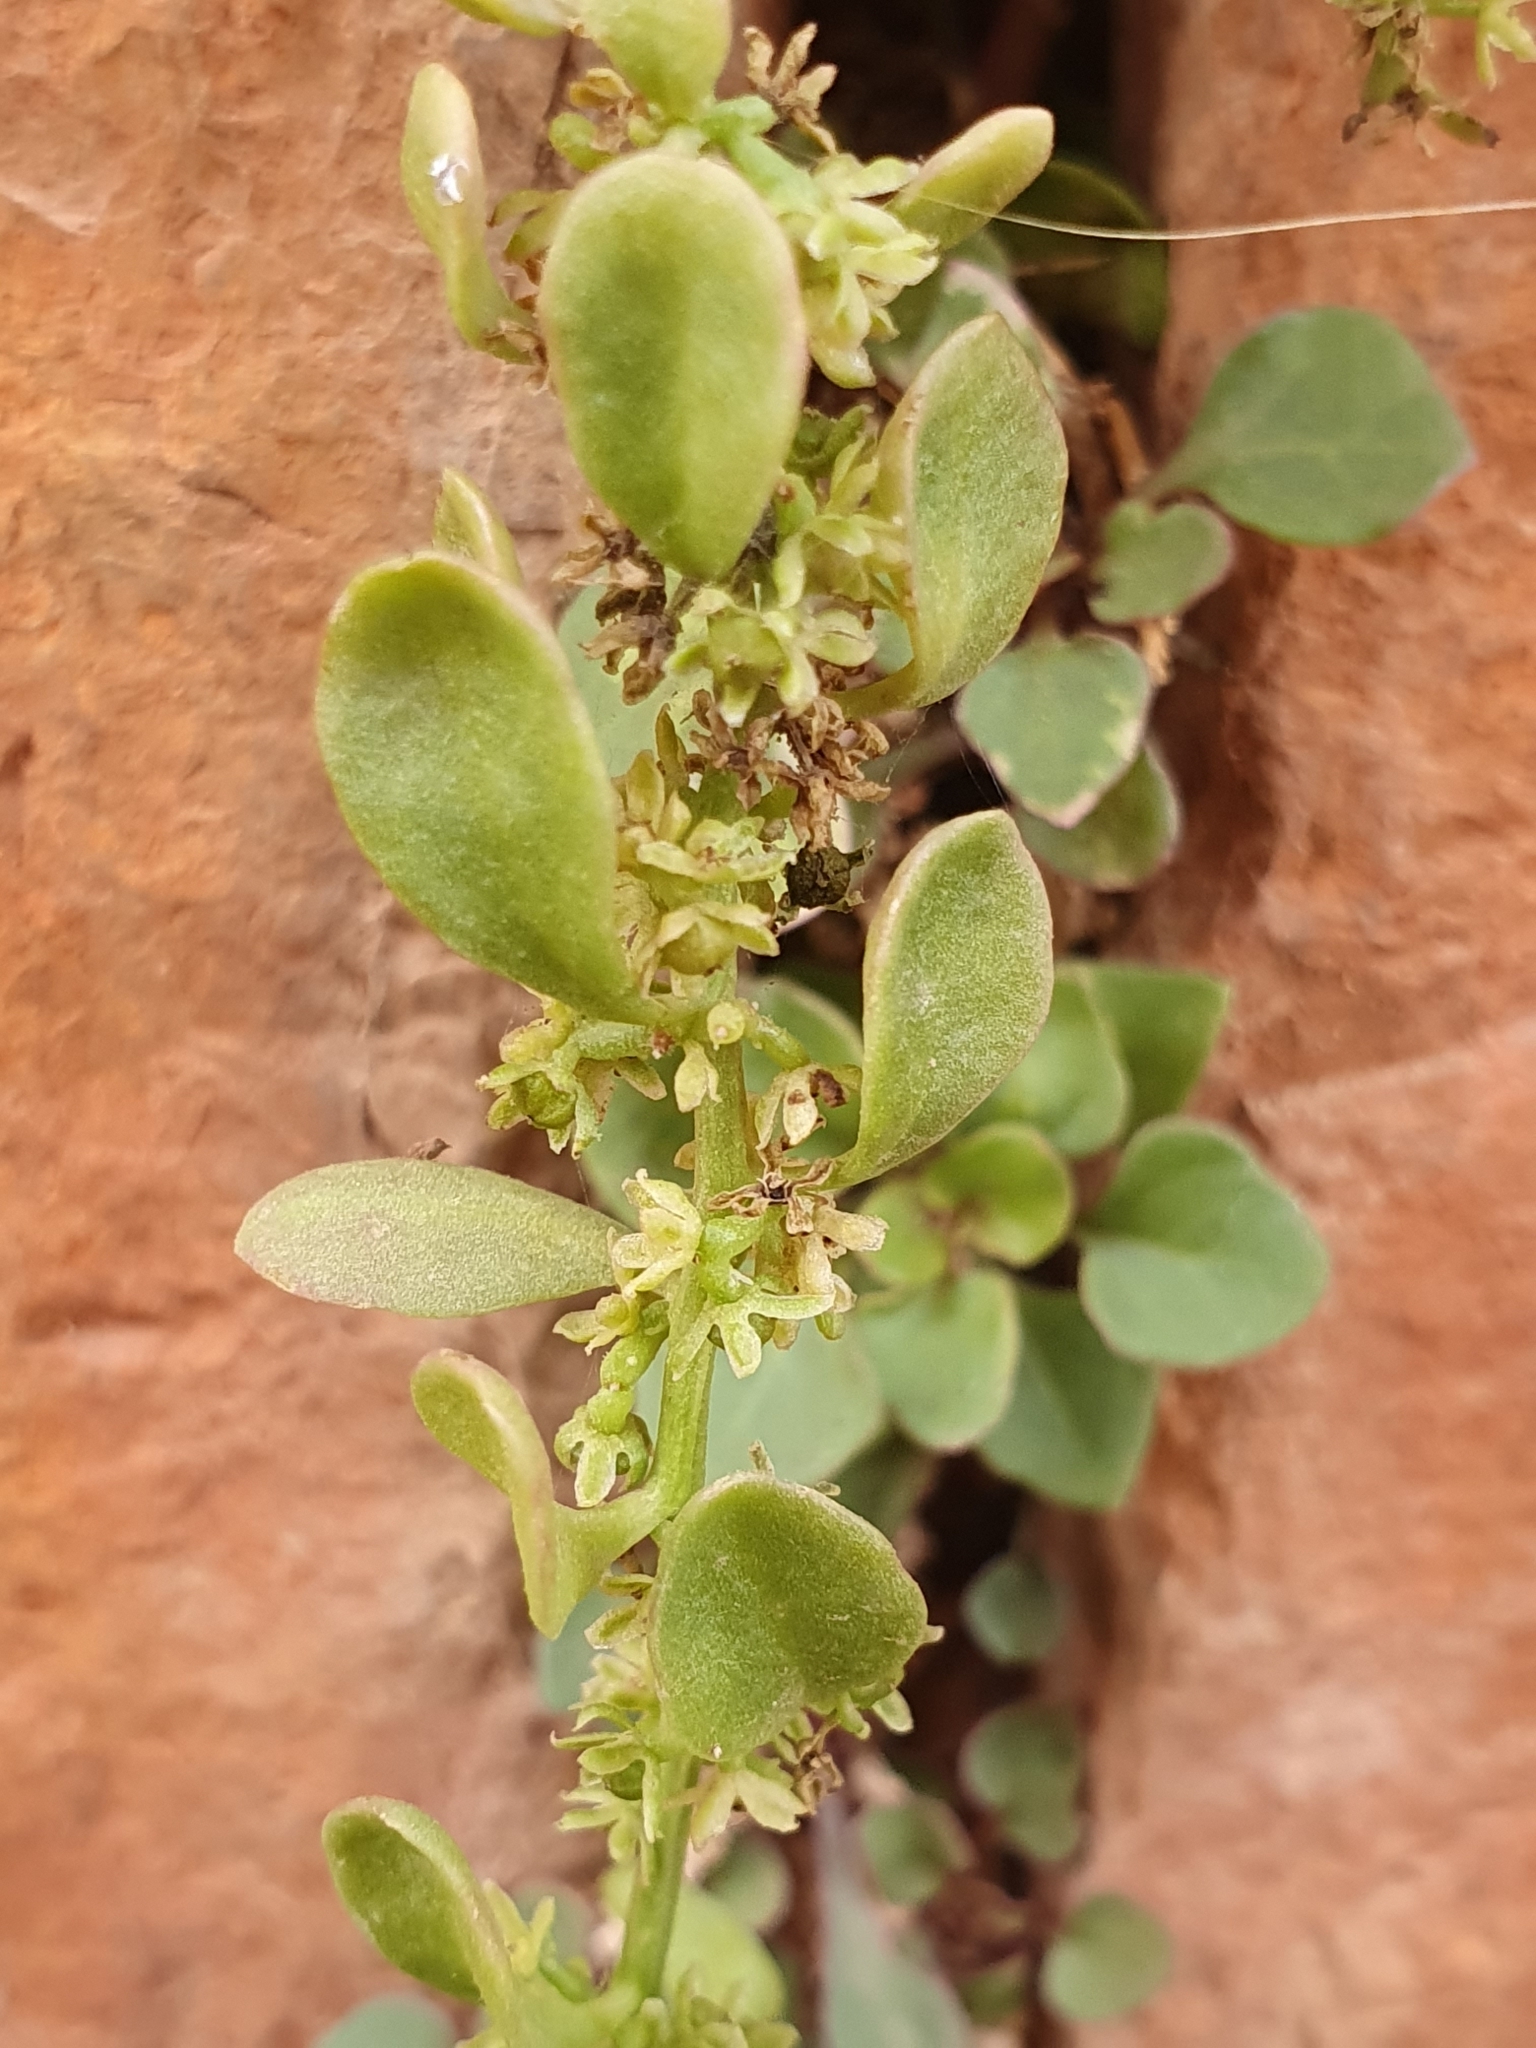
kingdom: Plantae
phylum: Tracheophyta
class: Magnoliopsida
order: Caryophyllales
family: Amaranthaceae
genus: Oreobliton
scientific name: Oreobliton thesioides
